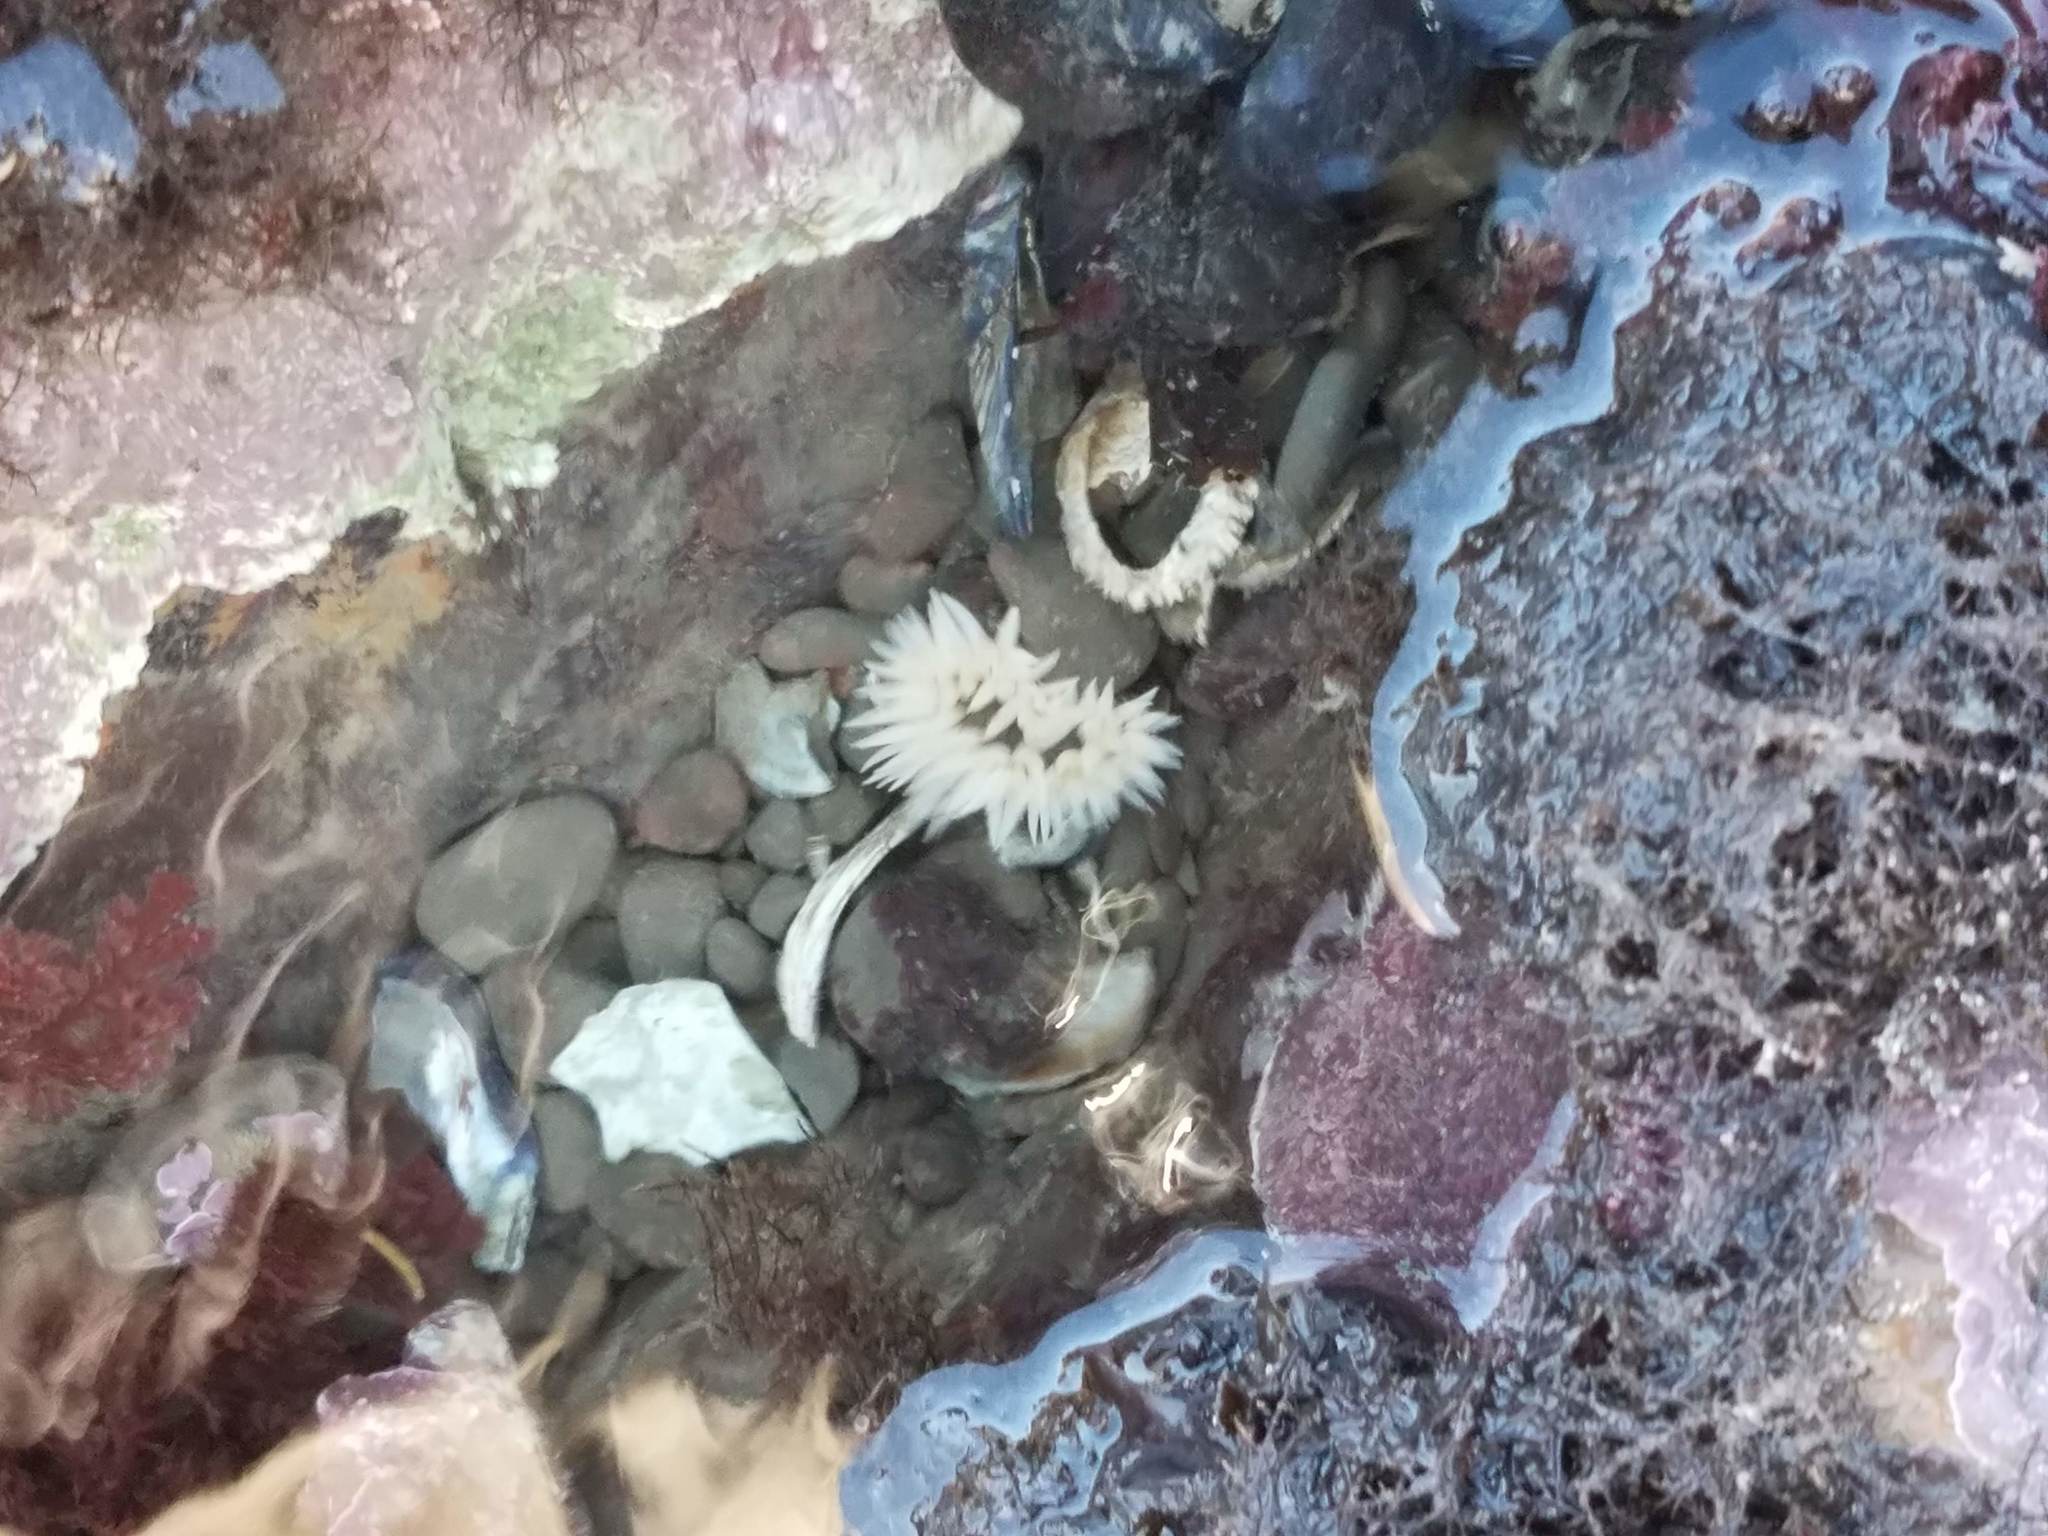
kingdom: Animalia
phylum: Cnidaria
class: Anthozoa
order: Actiniaria
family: Actiniidae
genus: Anthopleura
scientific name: Anthopleura artemisia
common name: Buried sea anemone
